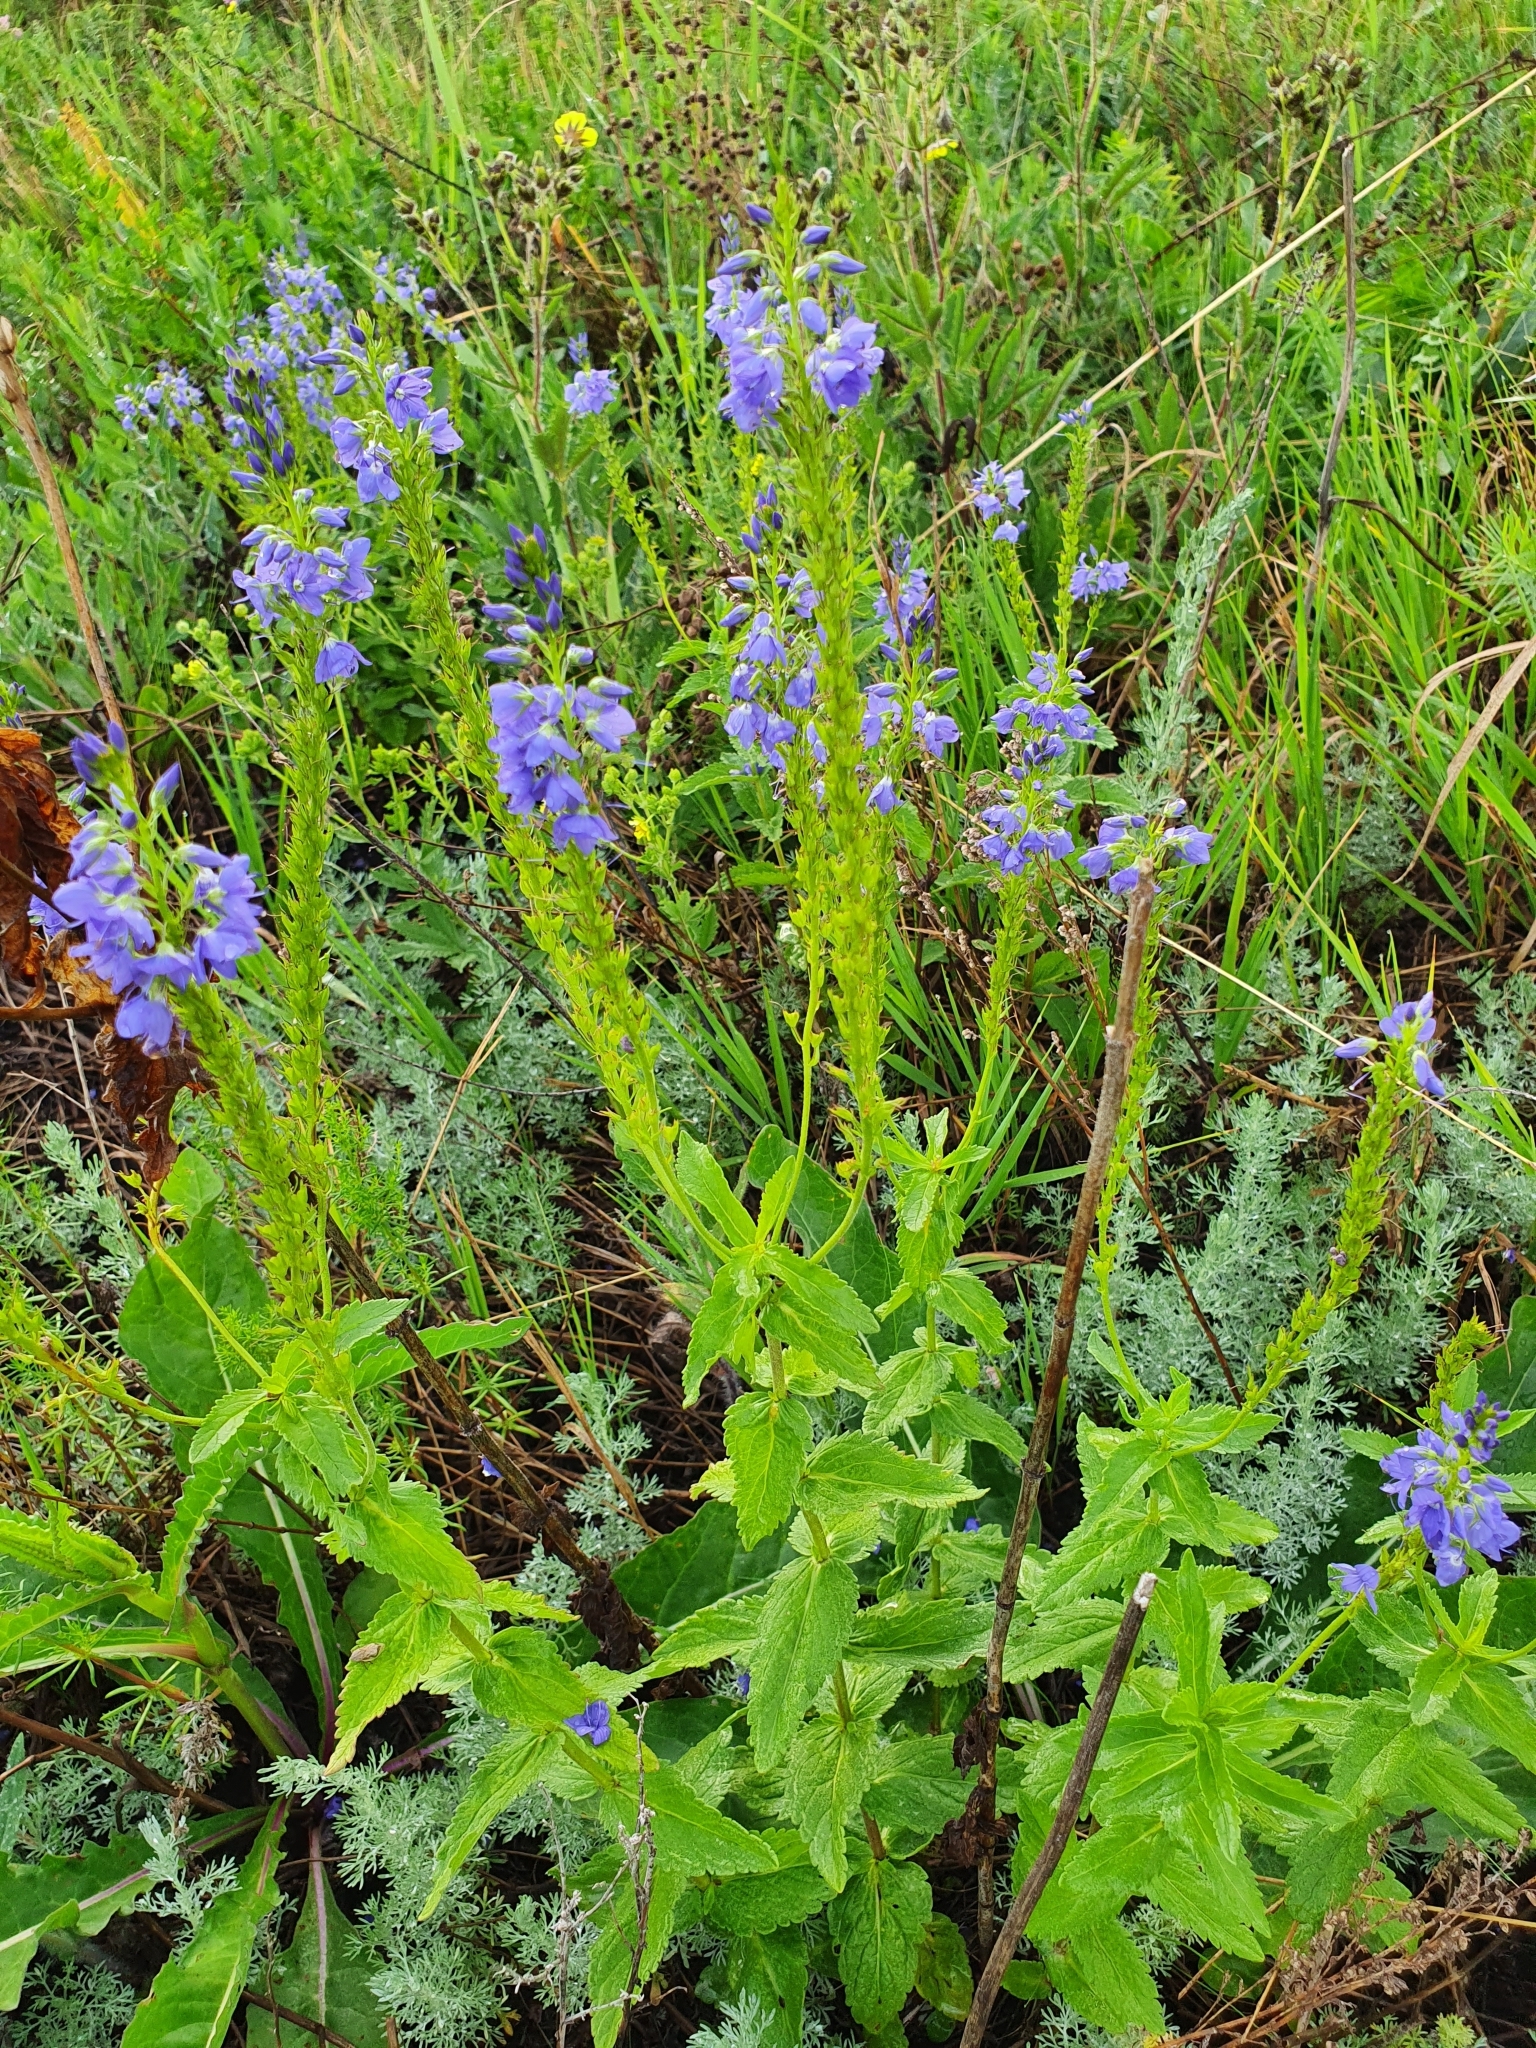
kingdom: Plantae
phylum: Tracheophyta
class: Magnoliopsida
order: Lamiales
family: Plantaginaceae
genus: Veronica
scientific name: Veronica teucrium
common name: Large speedwell
